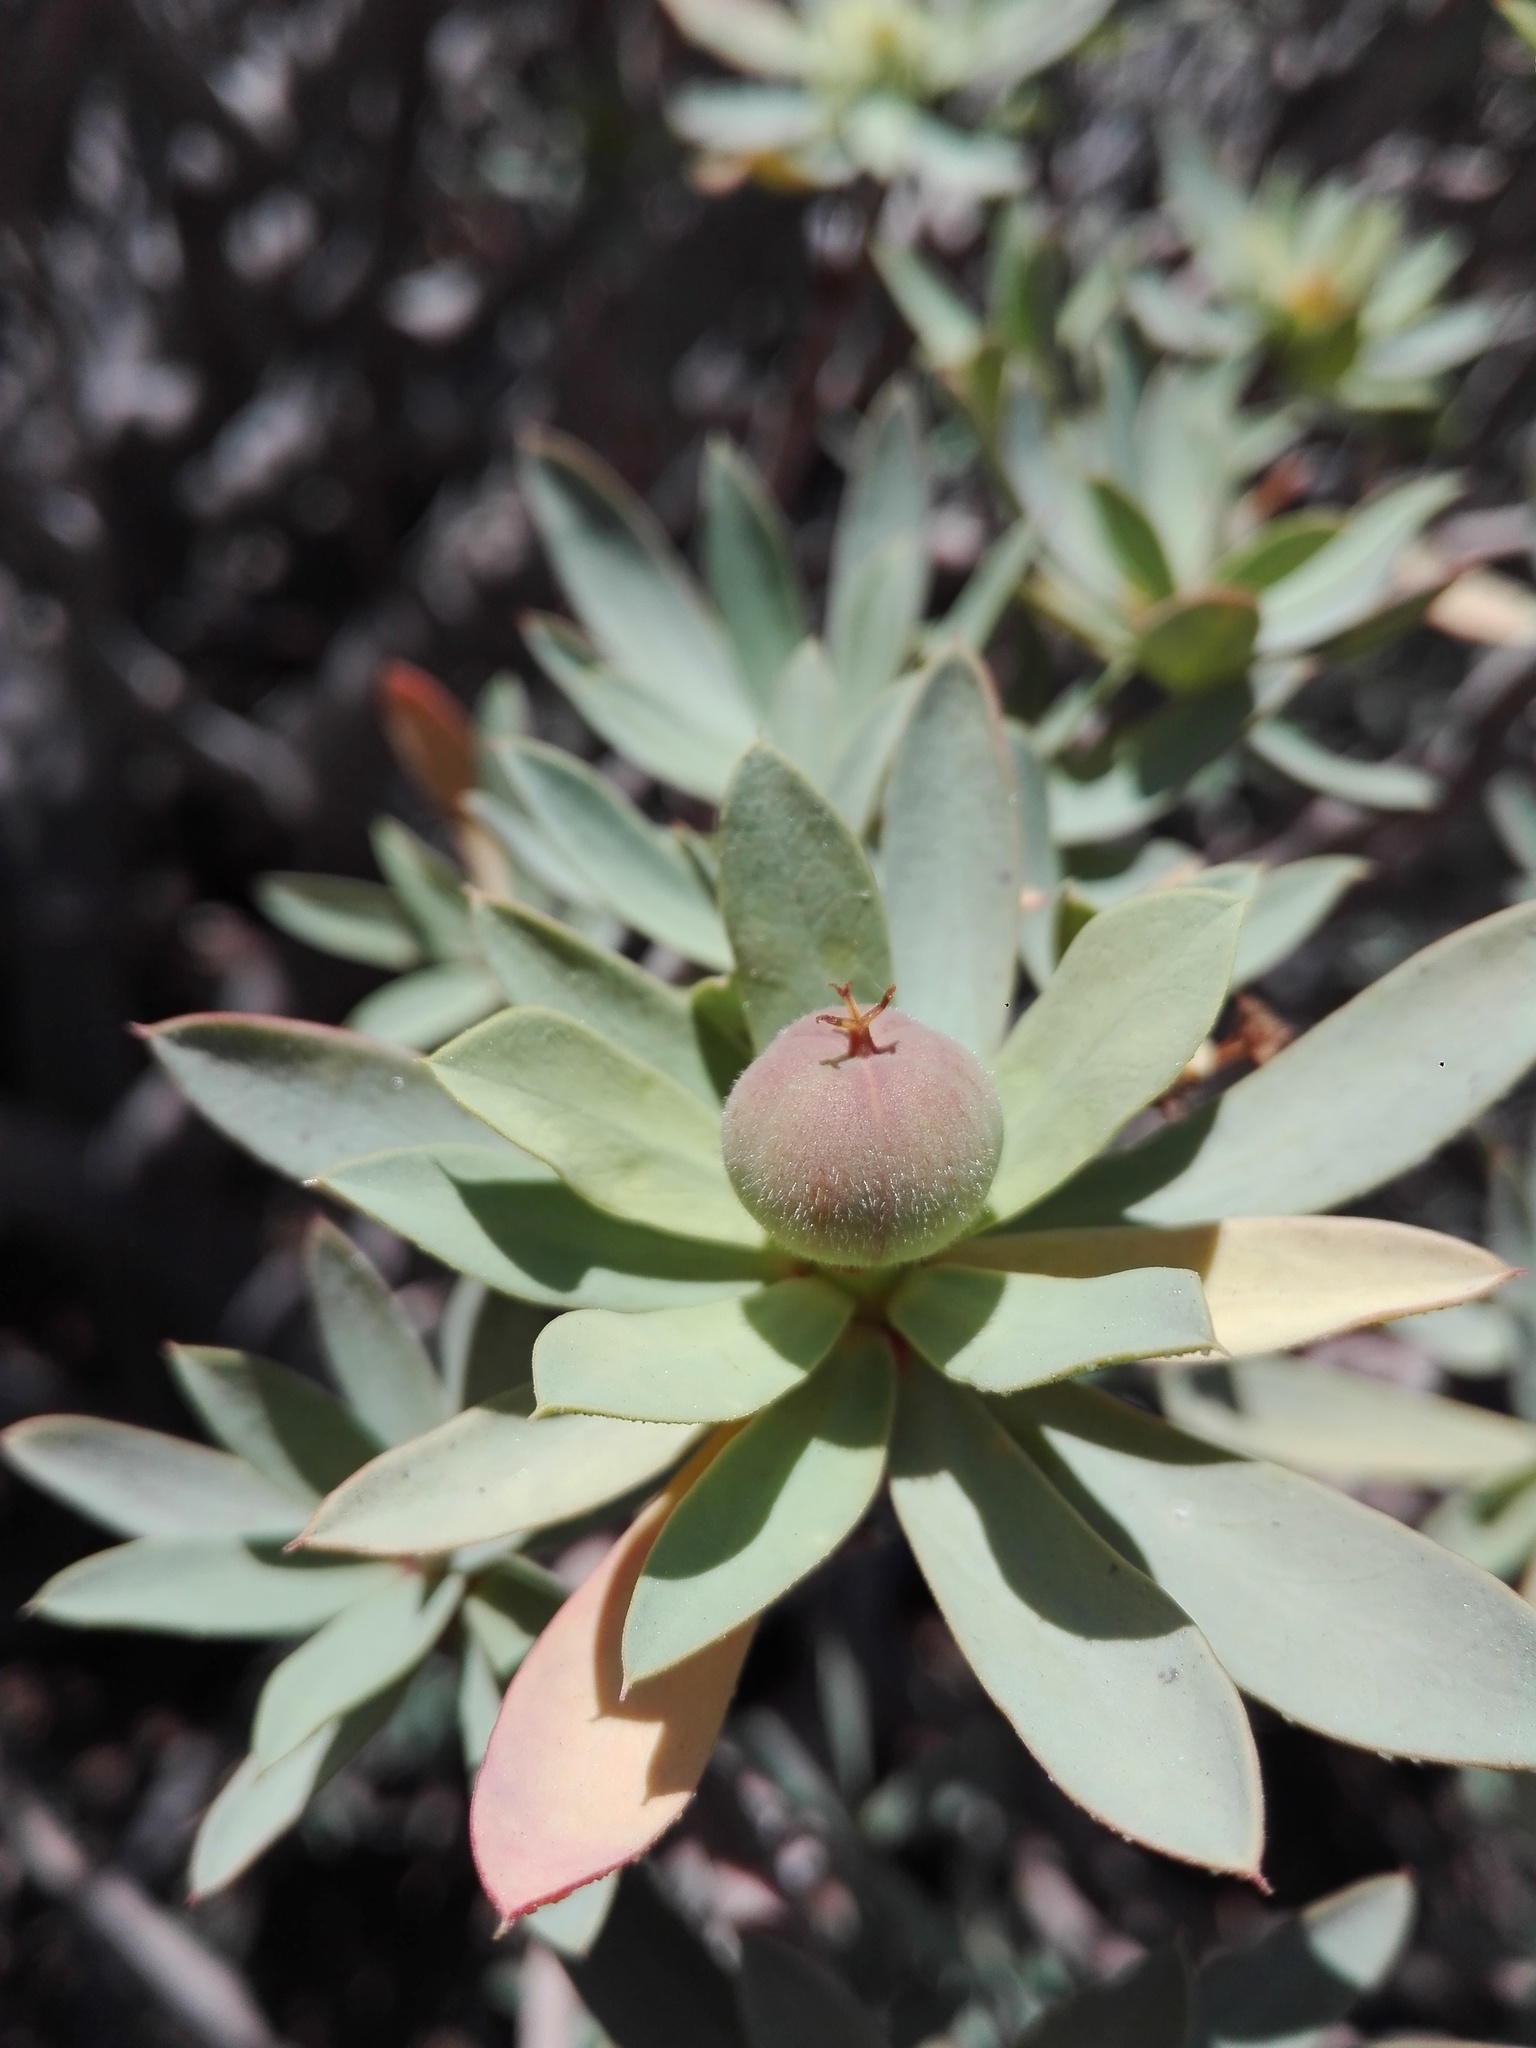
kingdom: Plantae
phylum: Tracheophyta
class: Magnoliopsida
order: Malpighiales
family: Euphorbiaceae
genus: Euphorbia
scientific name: Euphorbia balsamifera
